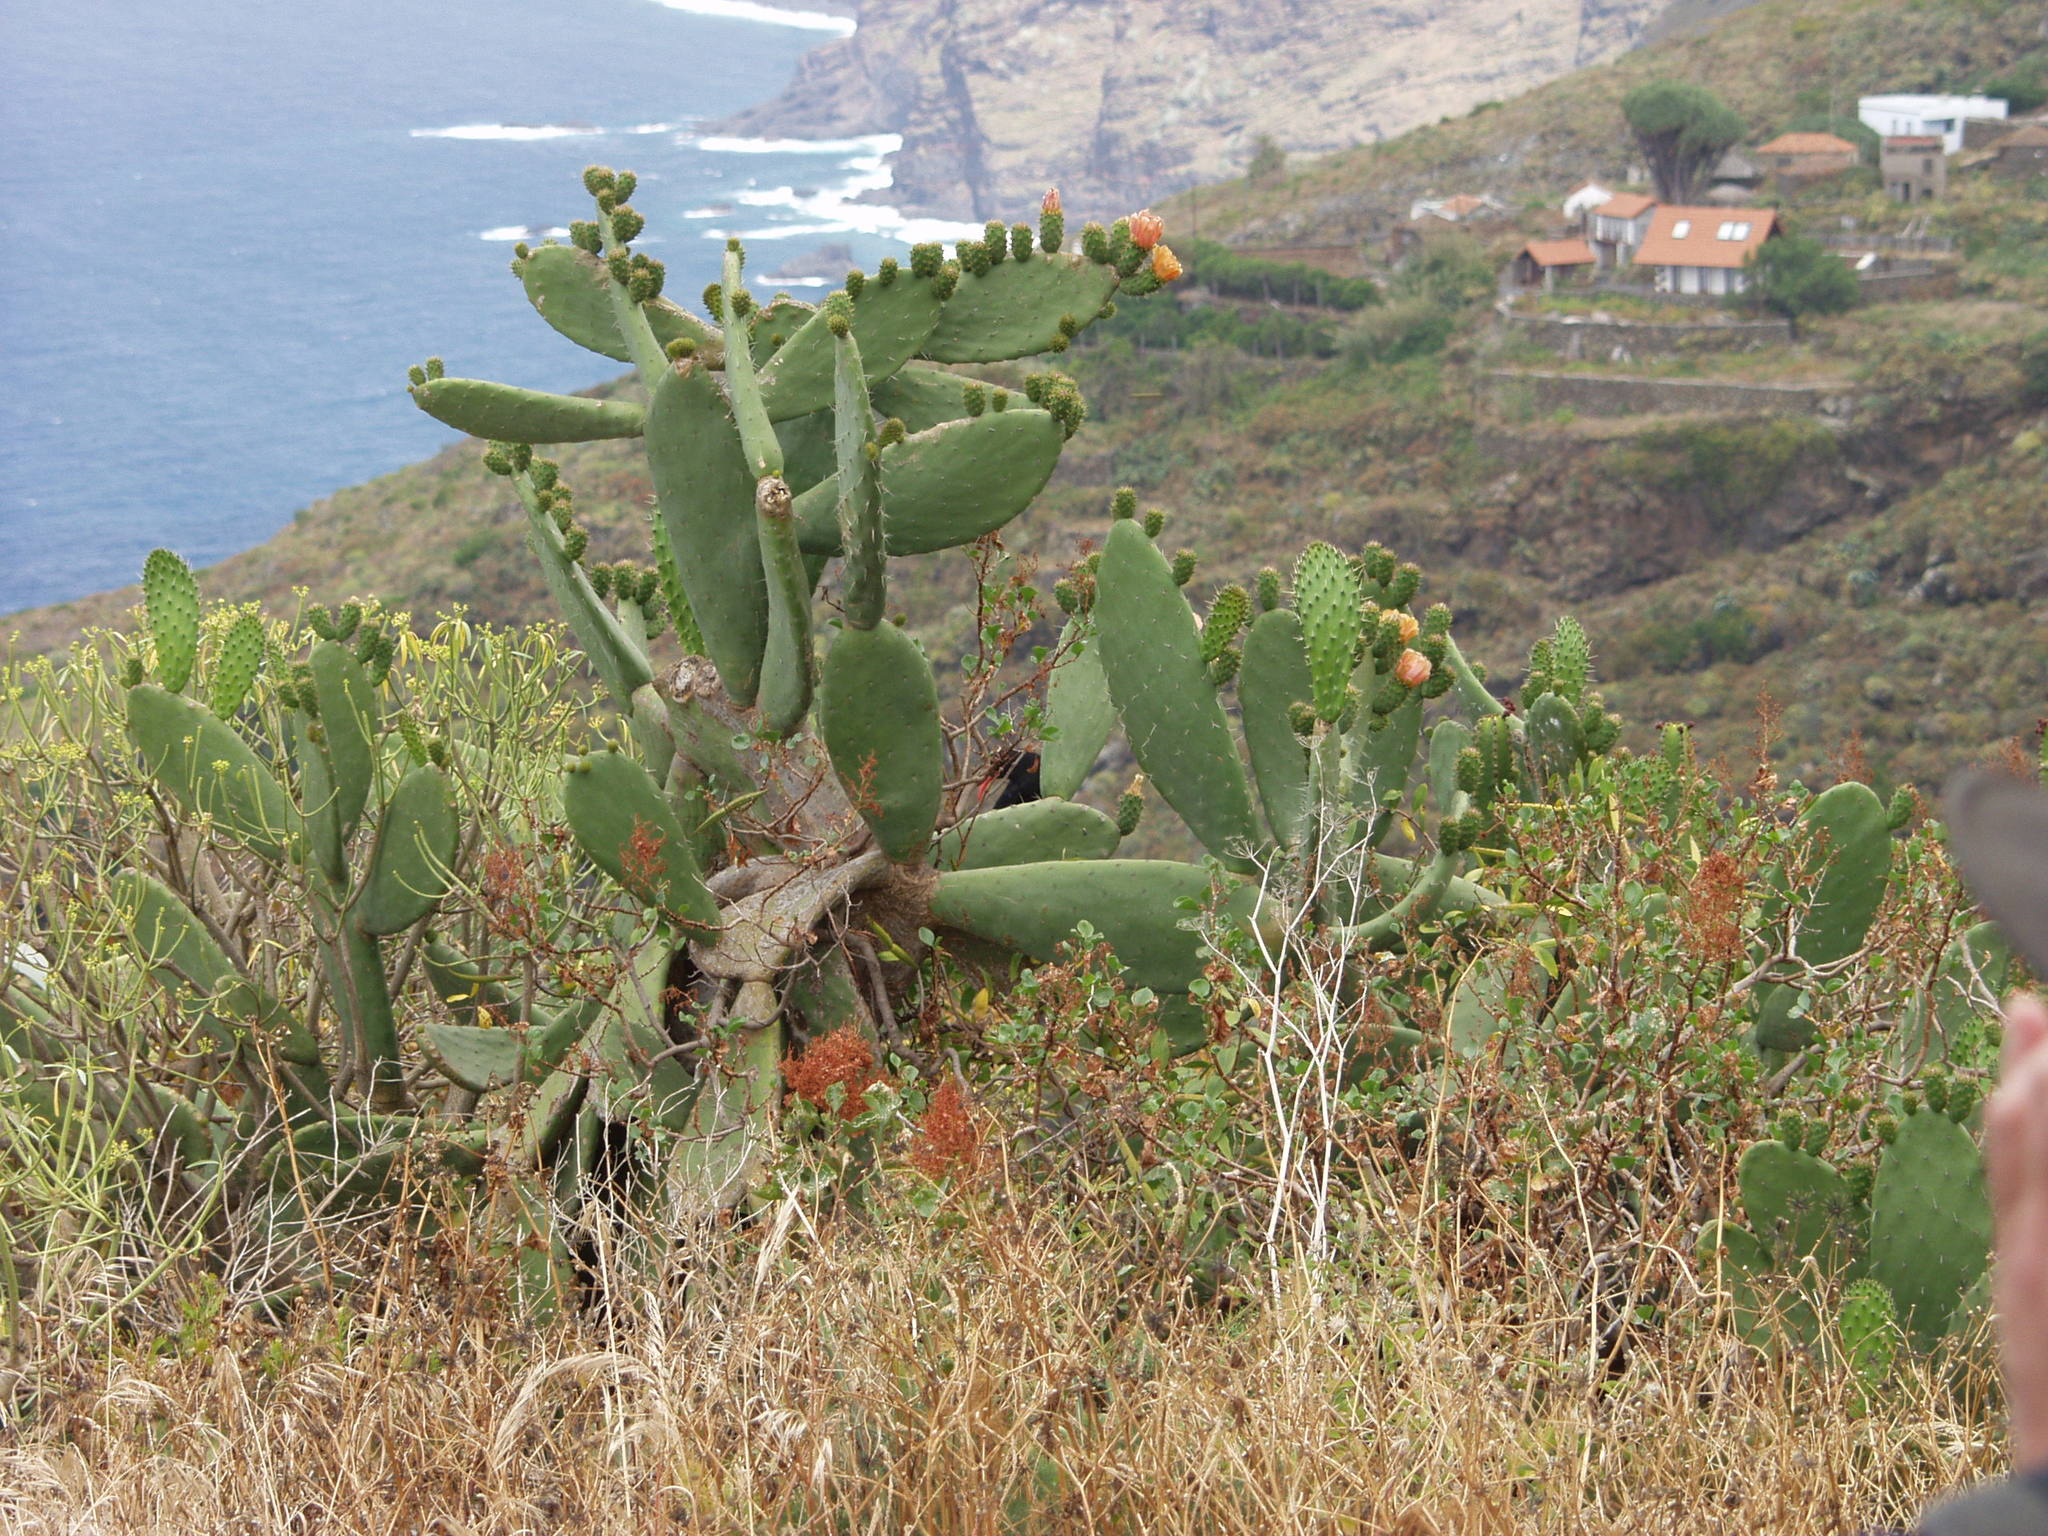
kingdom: Plantae
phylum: Tracheophyta
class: Magnoliopsida
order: Caryophyllales
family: Cactaceae
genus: Opuntia
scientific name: Opuntia ficus-indica
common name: Barbary fig
